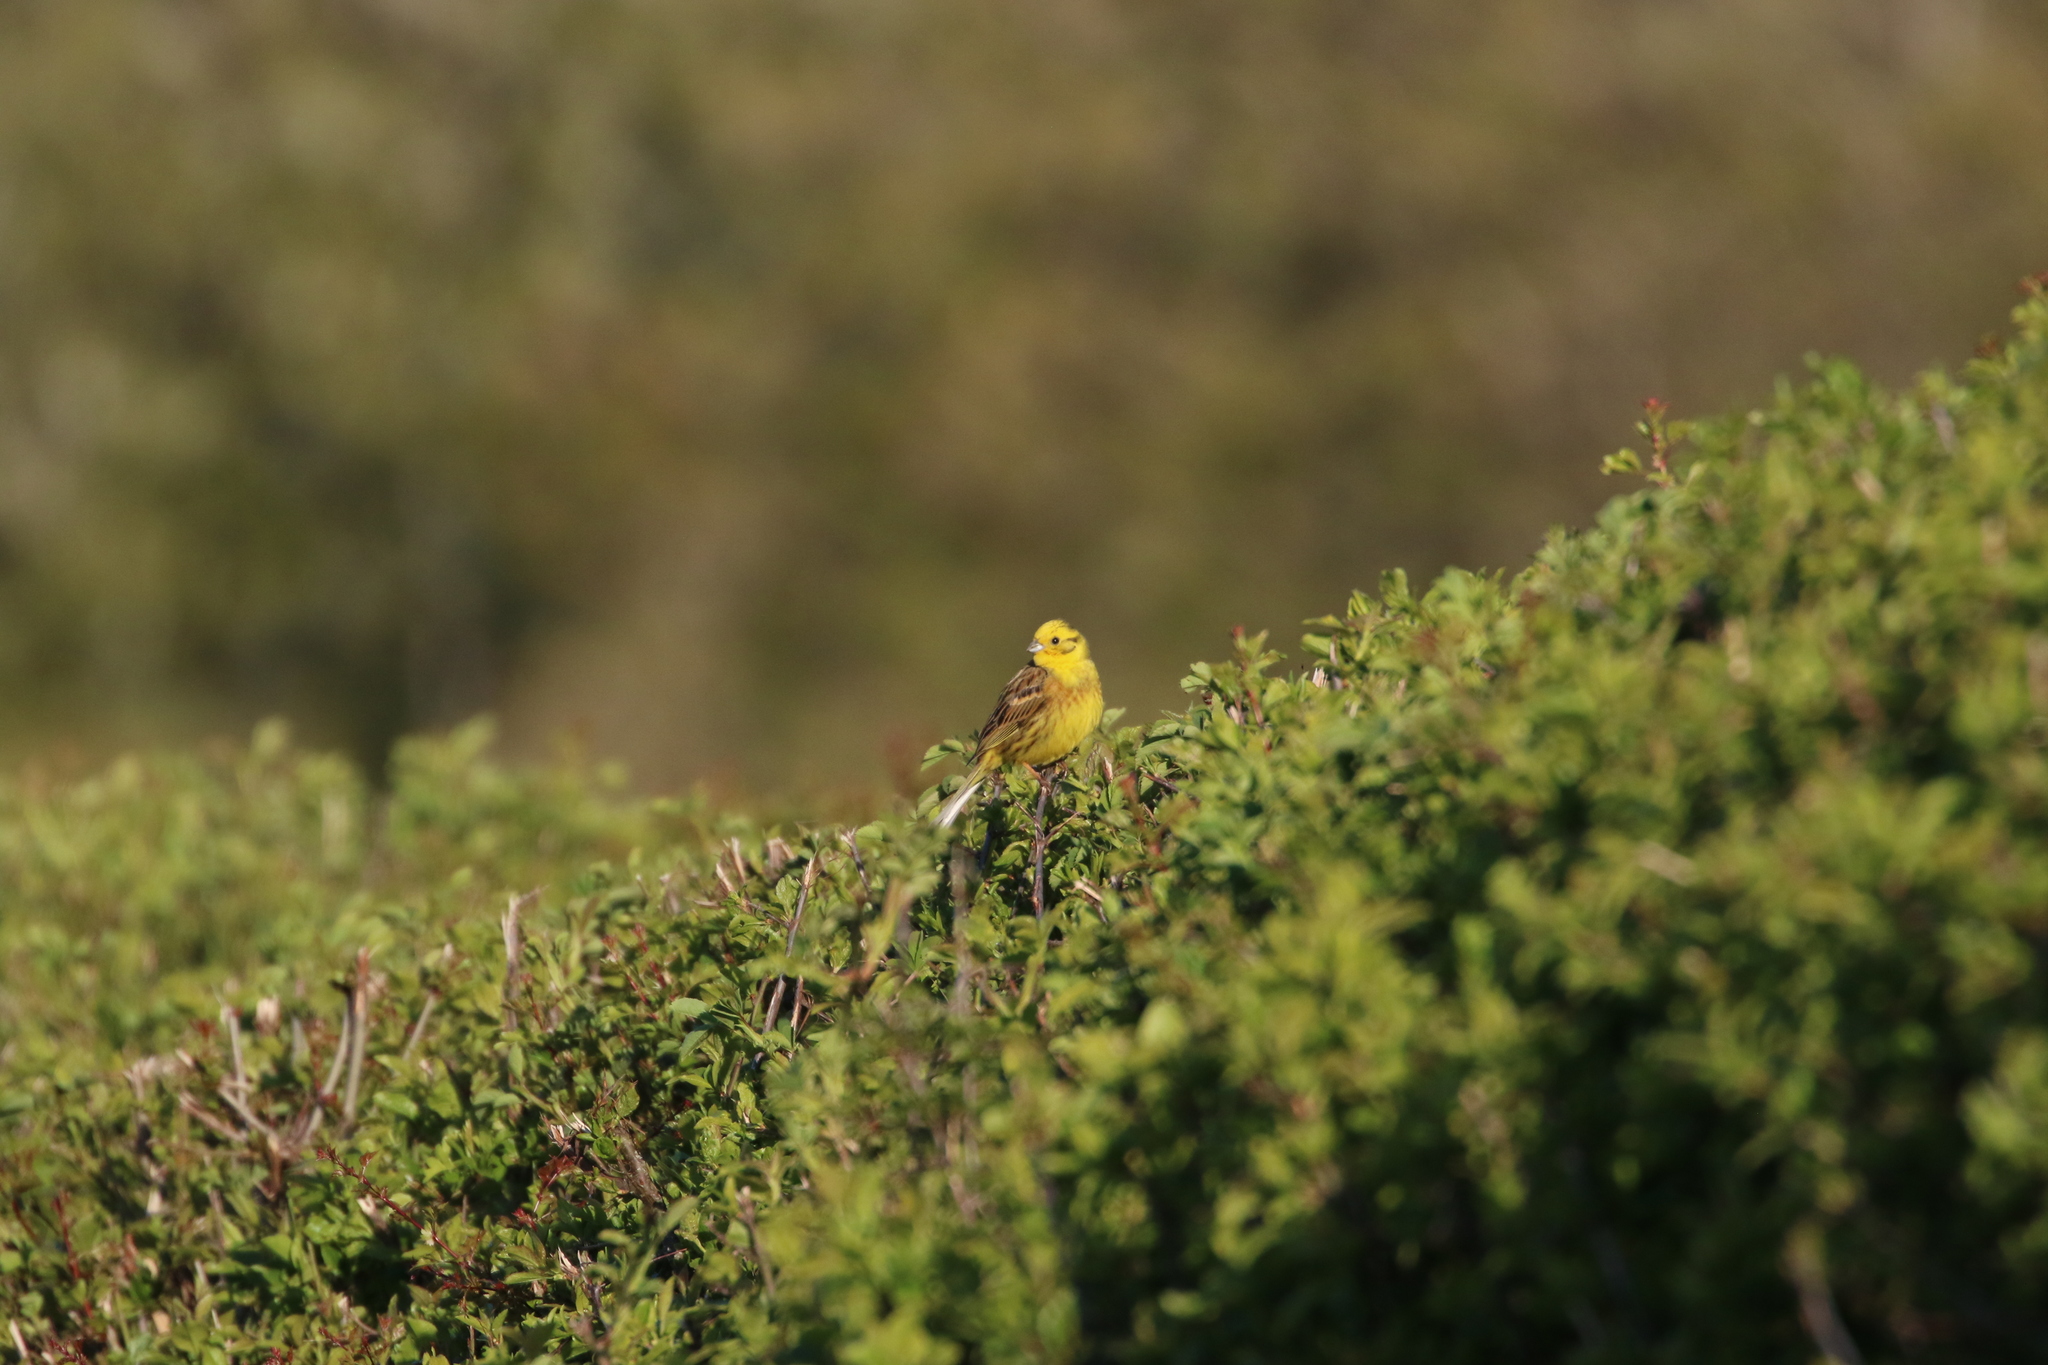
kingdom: Animalia
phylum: Chordata
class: Aves
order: Passeriformes
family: Emberizidae
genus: Emberiza
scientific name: Emberiza citrinella
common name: Yellowhammer
